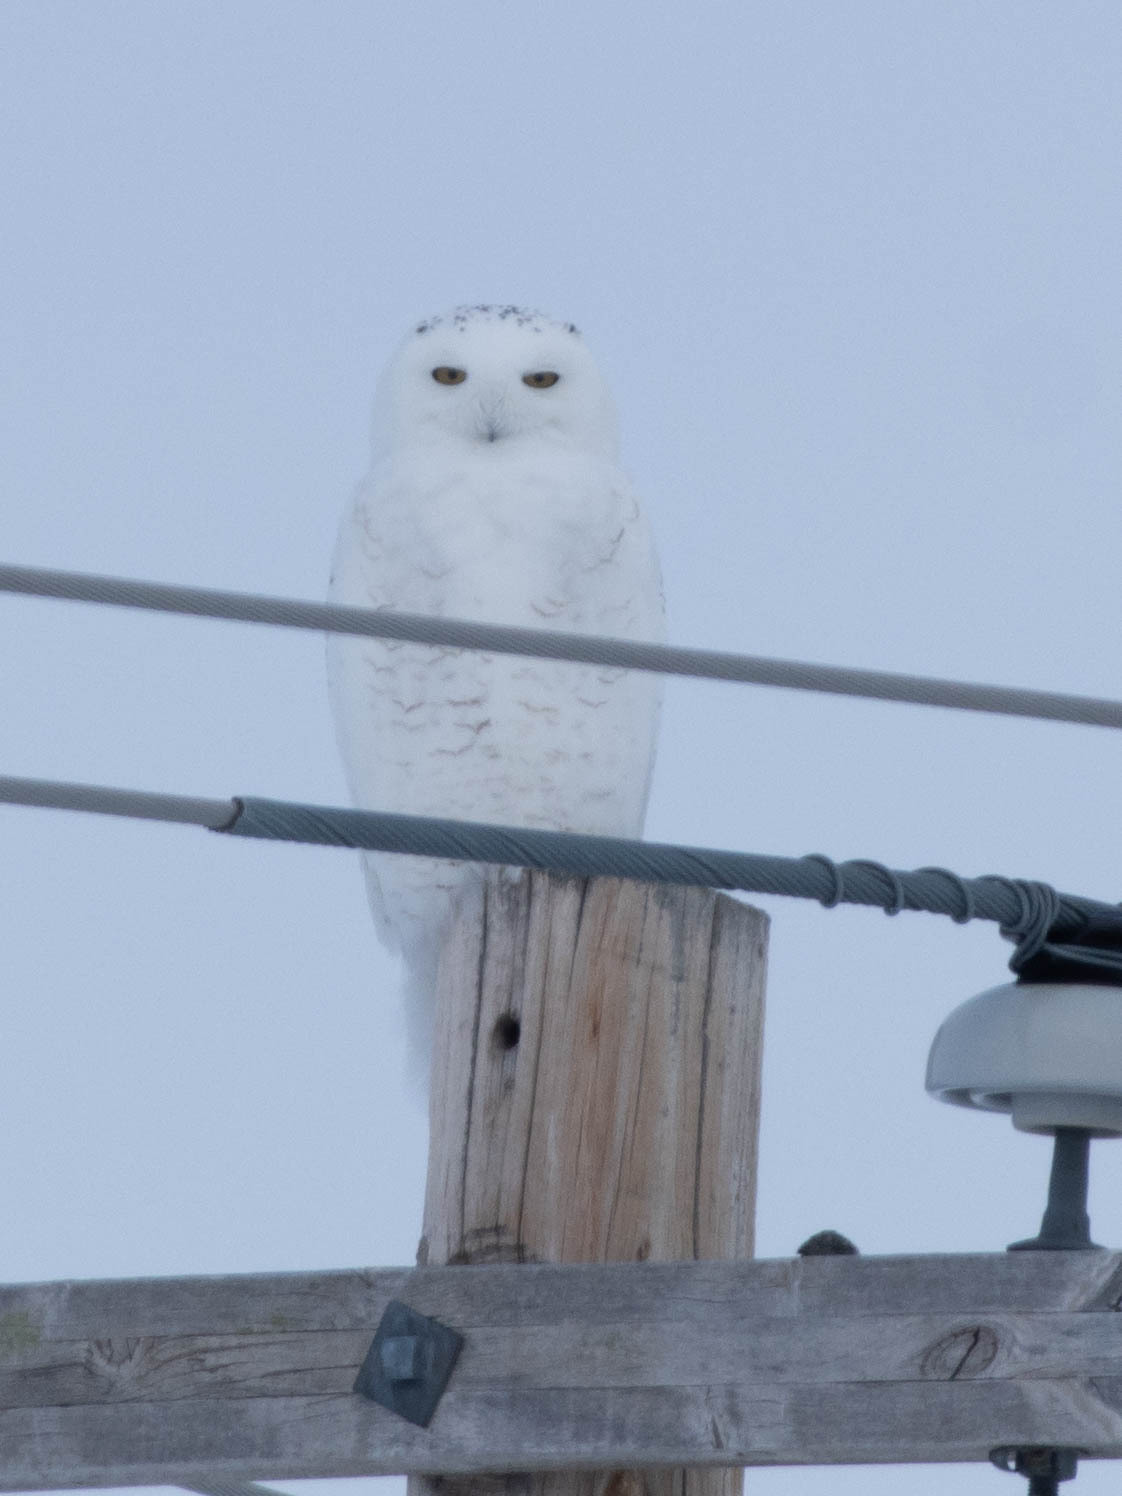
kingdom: Animalia
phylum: Chordata
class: Aves
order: Strigiformes
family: Strigidae
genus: Bubo
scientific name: Bubo scandiacus
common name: Snowy owl
